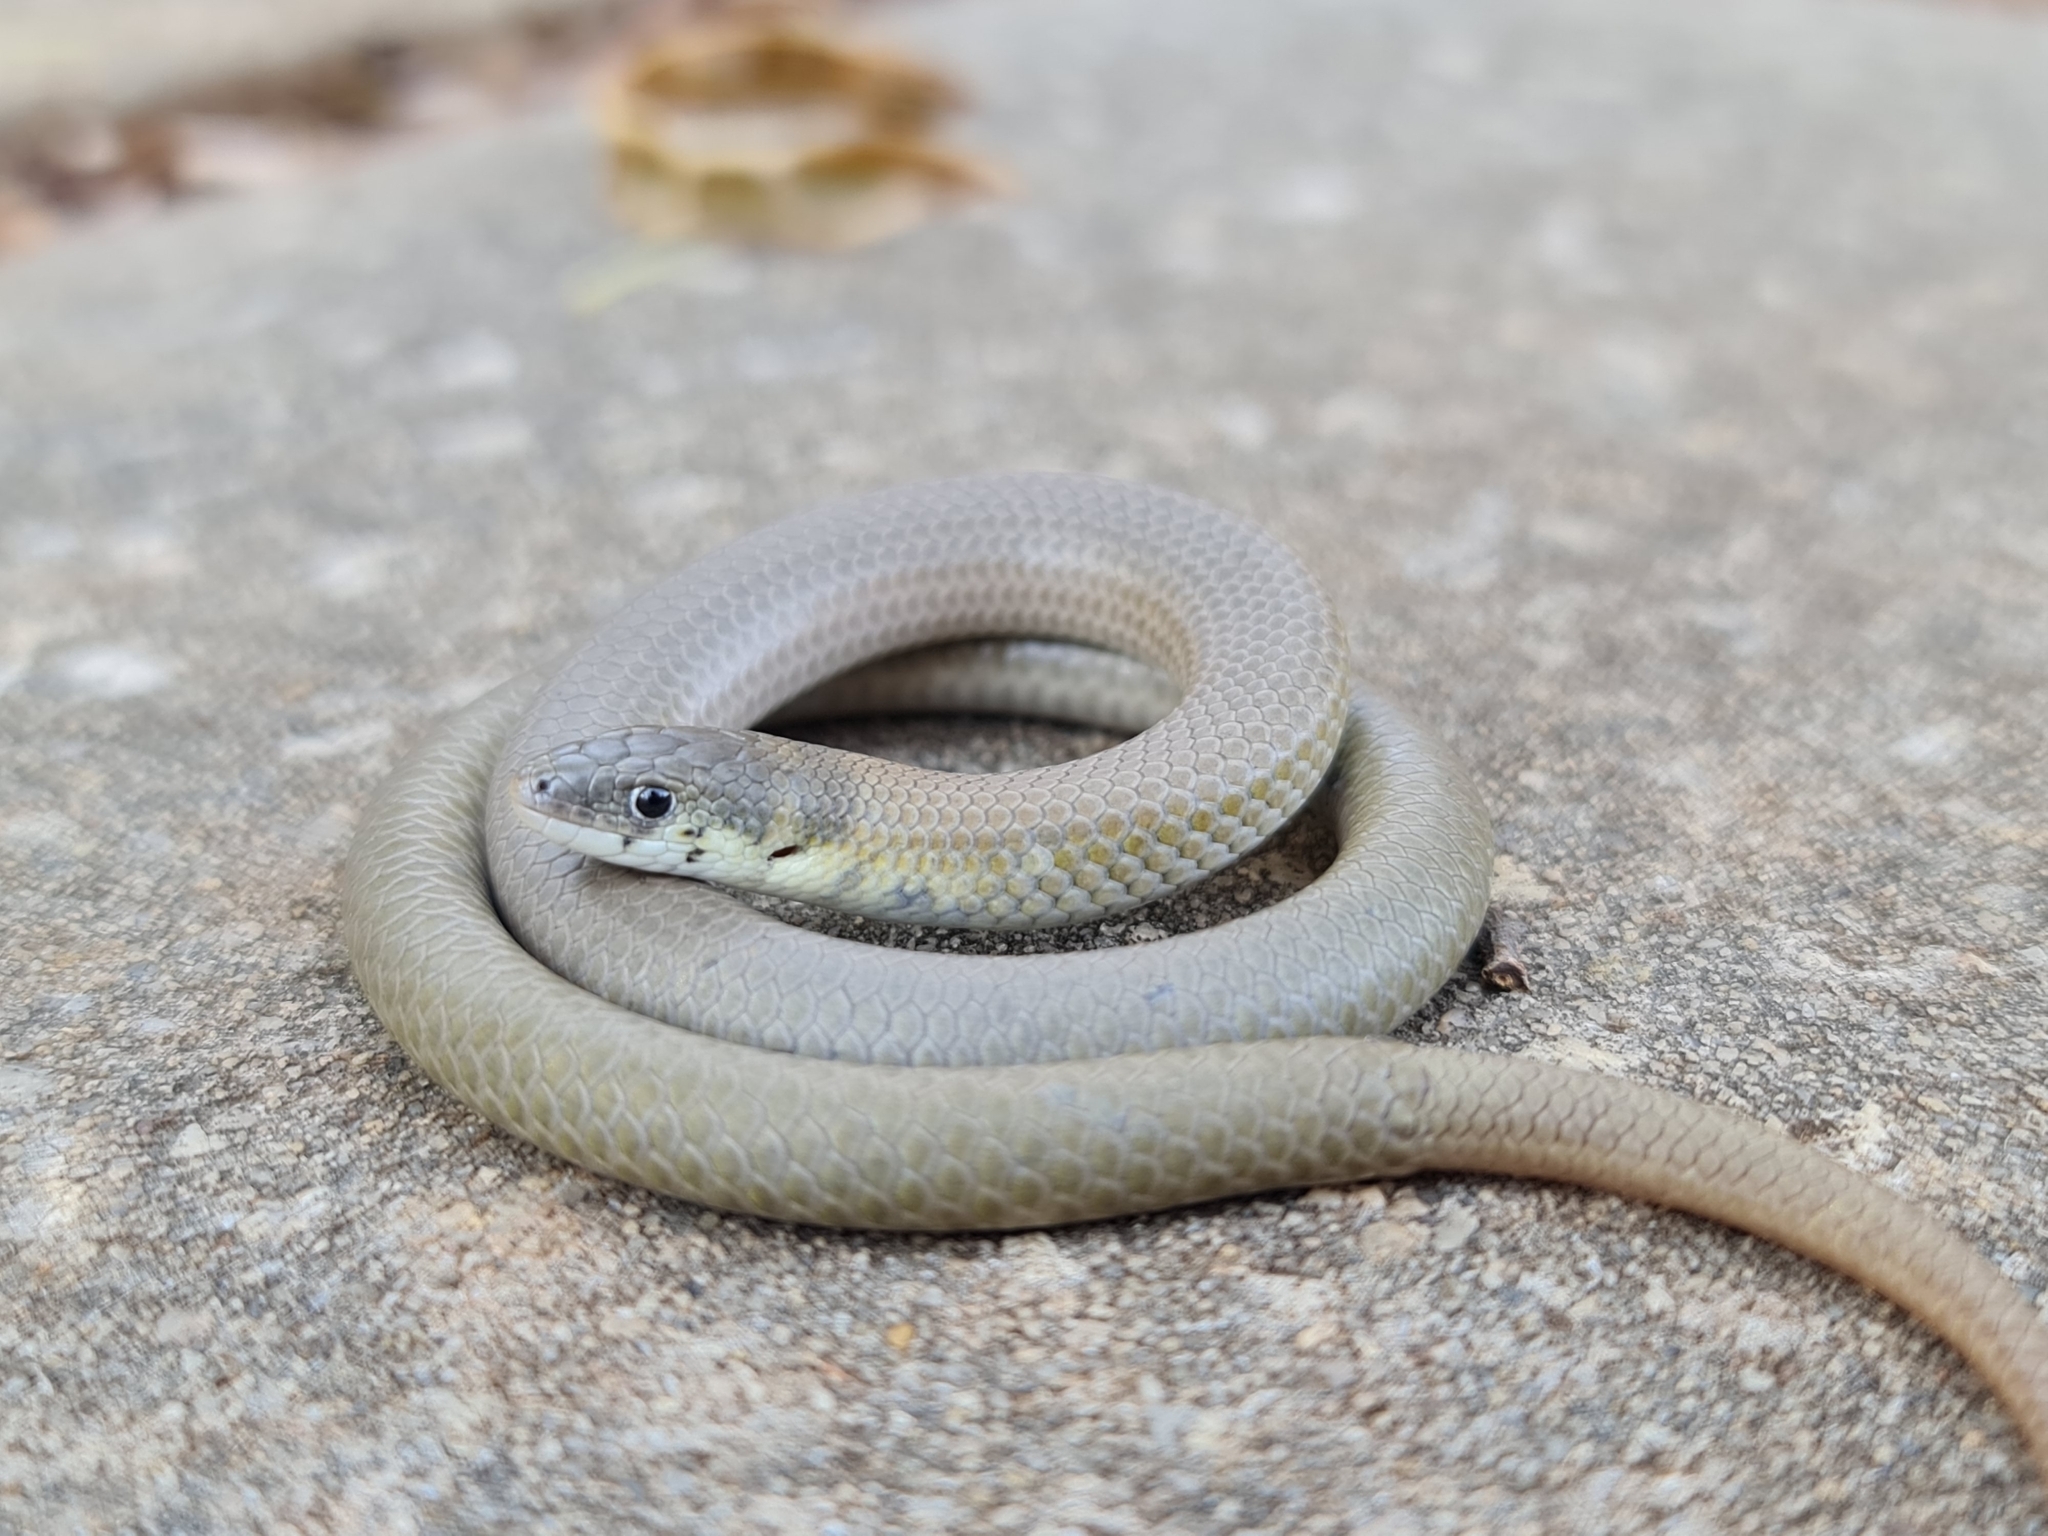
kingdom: Animalia
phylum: Chordata
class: Squamata
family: Pygopodidae
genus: Delma
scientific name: Delma molleri
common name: Gulfs delma
